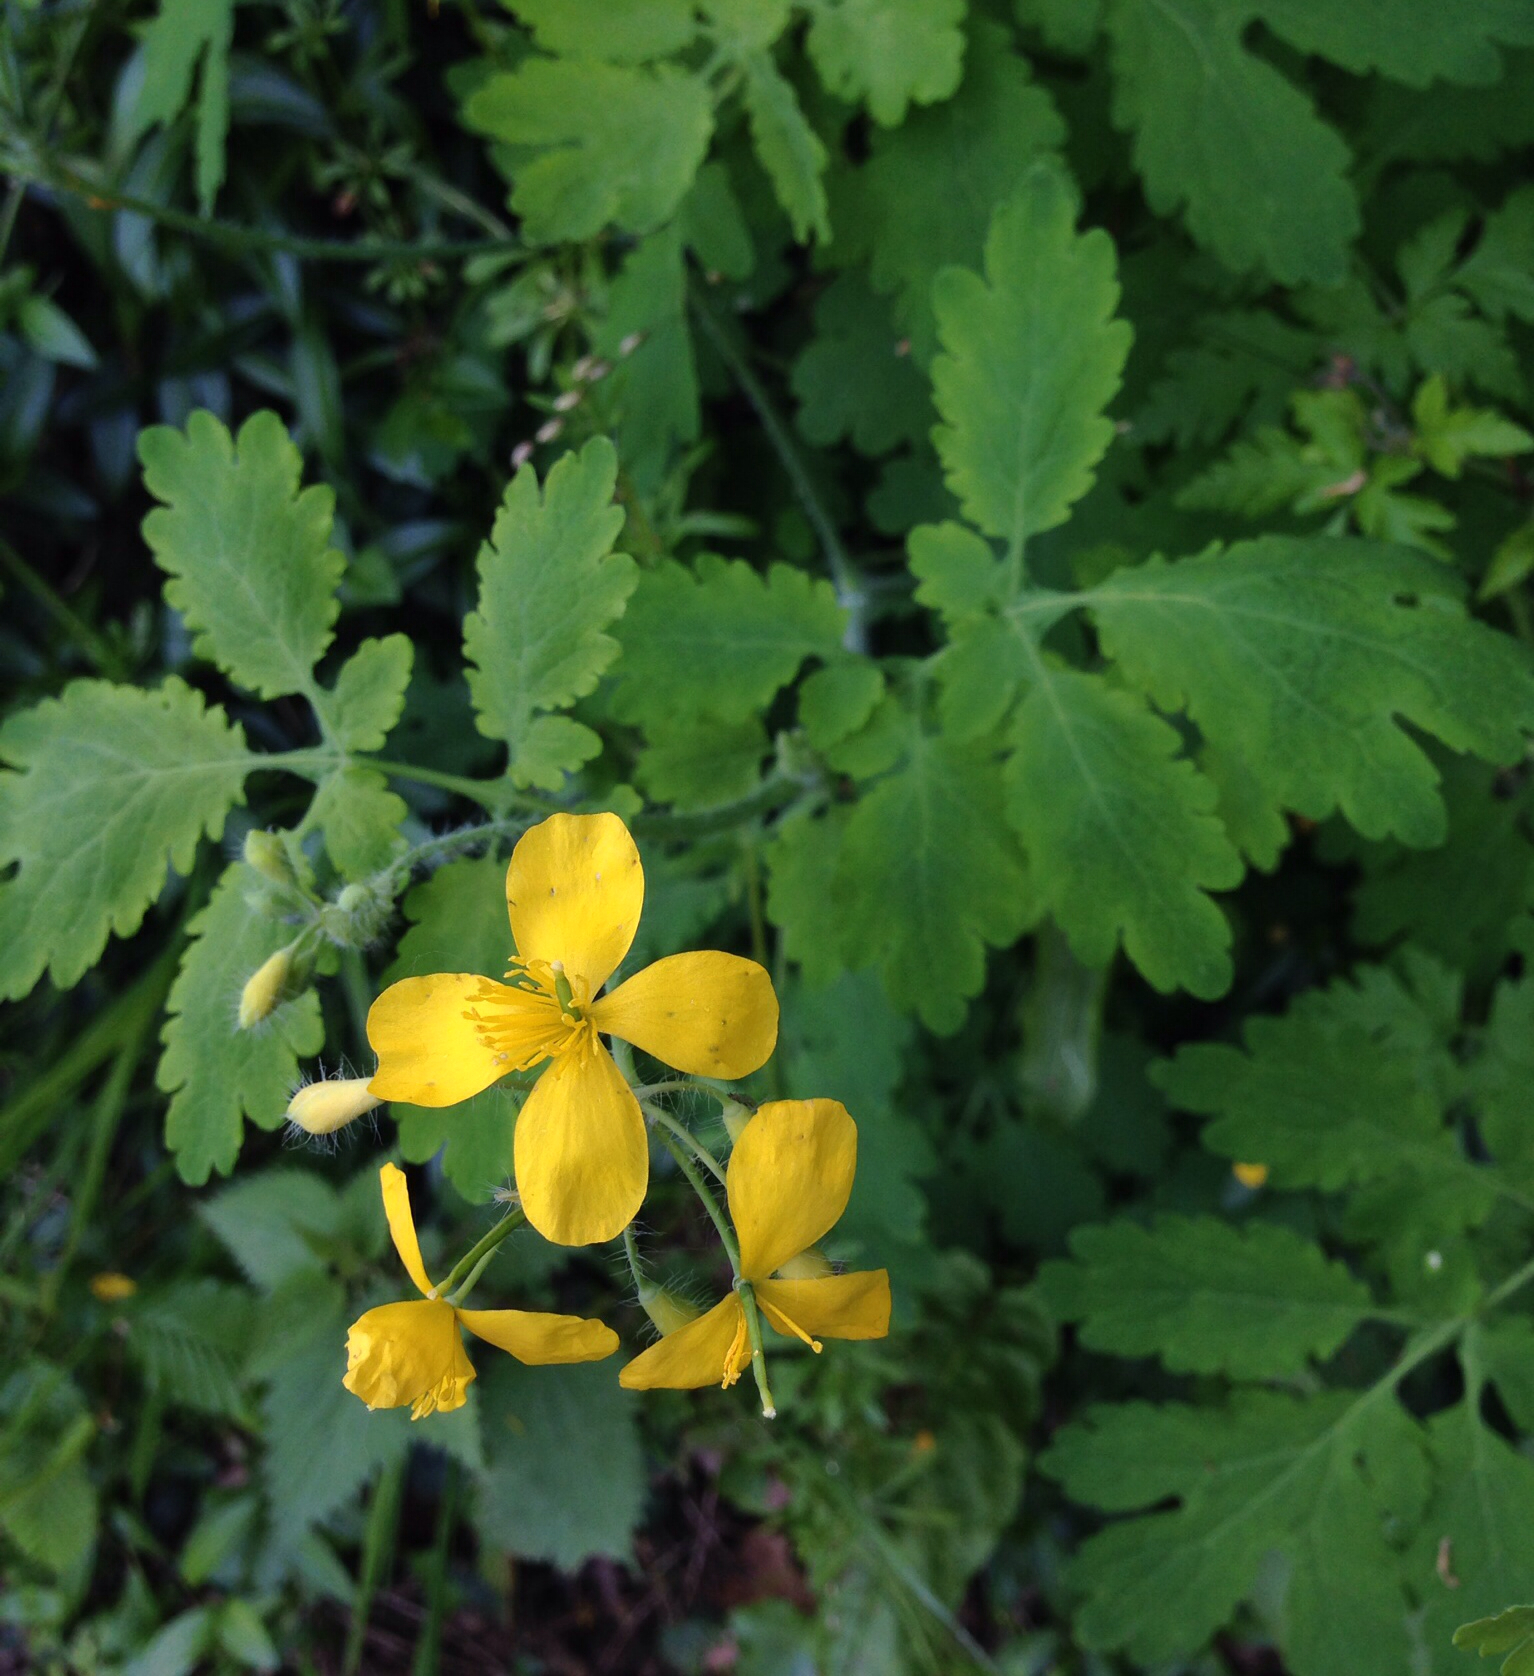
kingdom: Plantae
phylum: Tracheophyta
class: Magnoliopsida
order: Ranunculales
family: Papaveraceae
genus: Chelidonium
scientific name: Chelidonium majus
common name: Greater celandine
